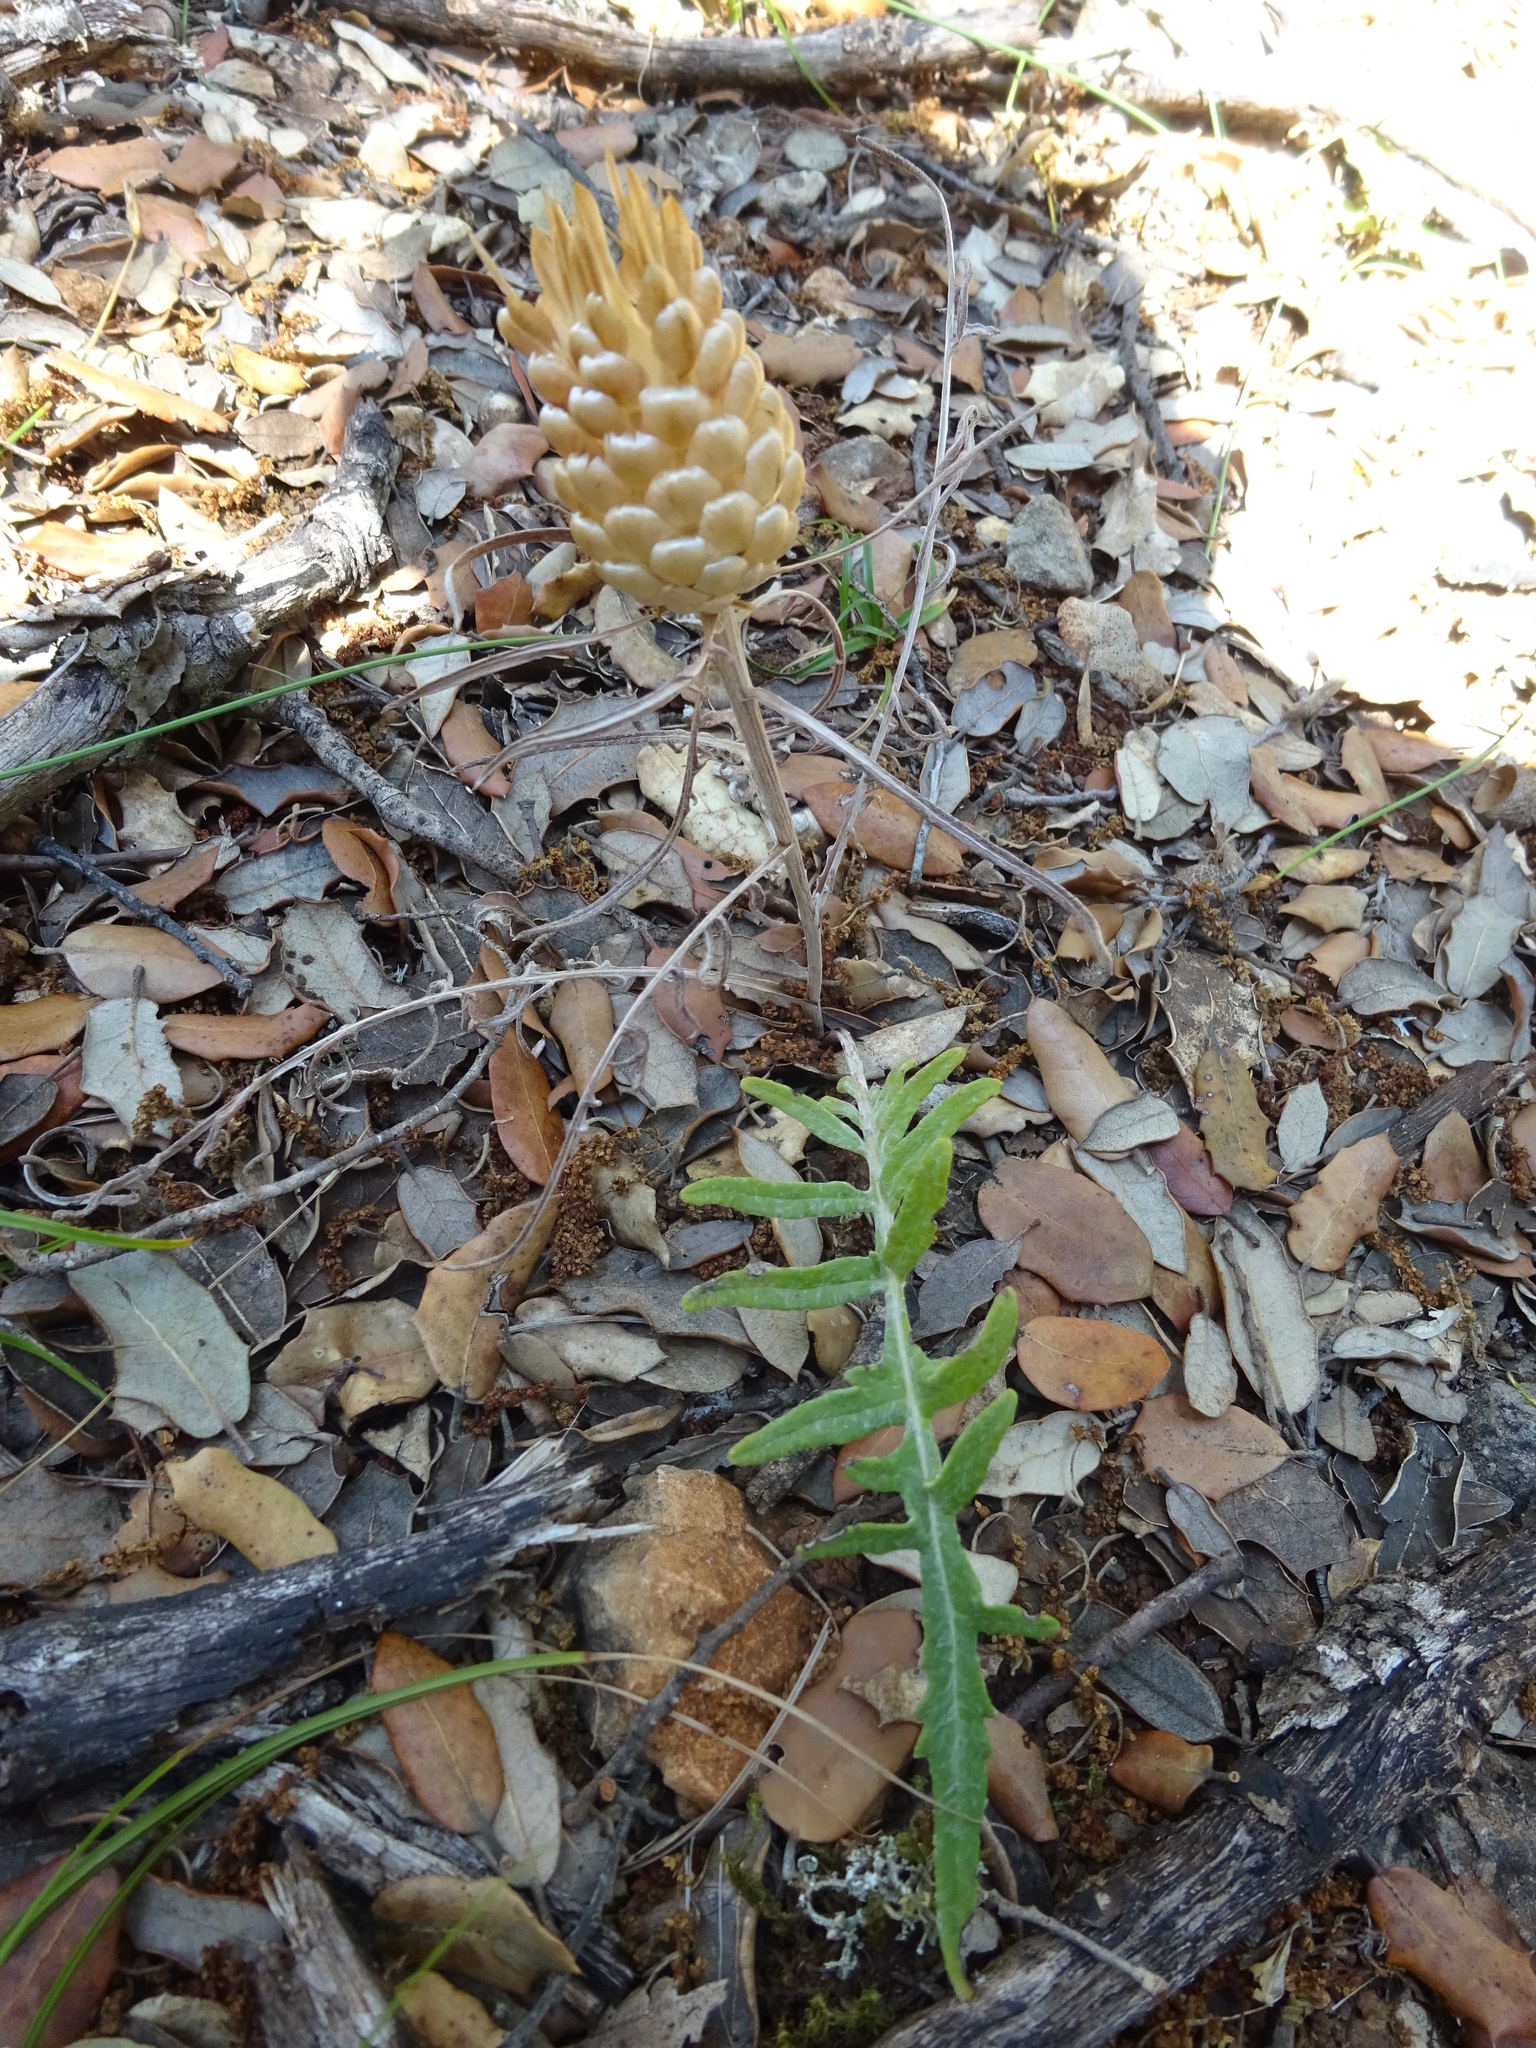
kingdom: Plantae
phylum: Tracheophyta
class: Magnoliopsida
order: Asterales
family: Asteraceae
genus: Leuzea
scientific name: Leuzea conifera
